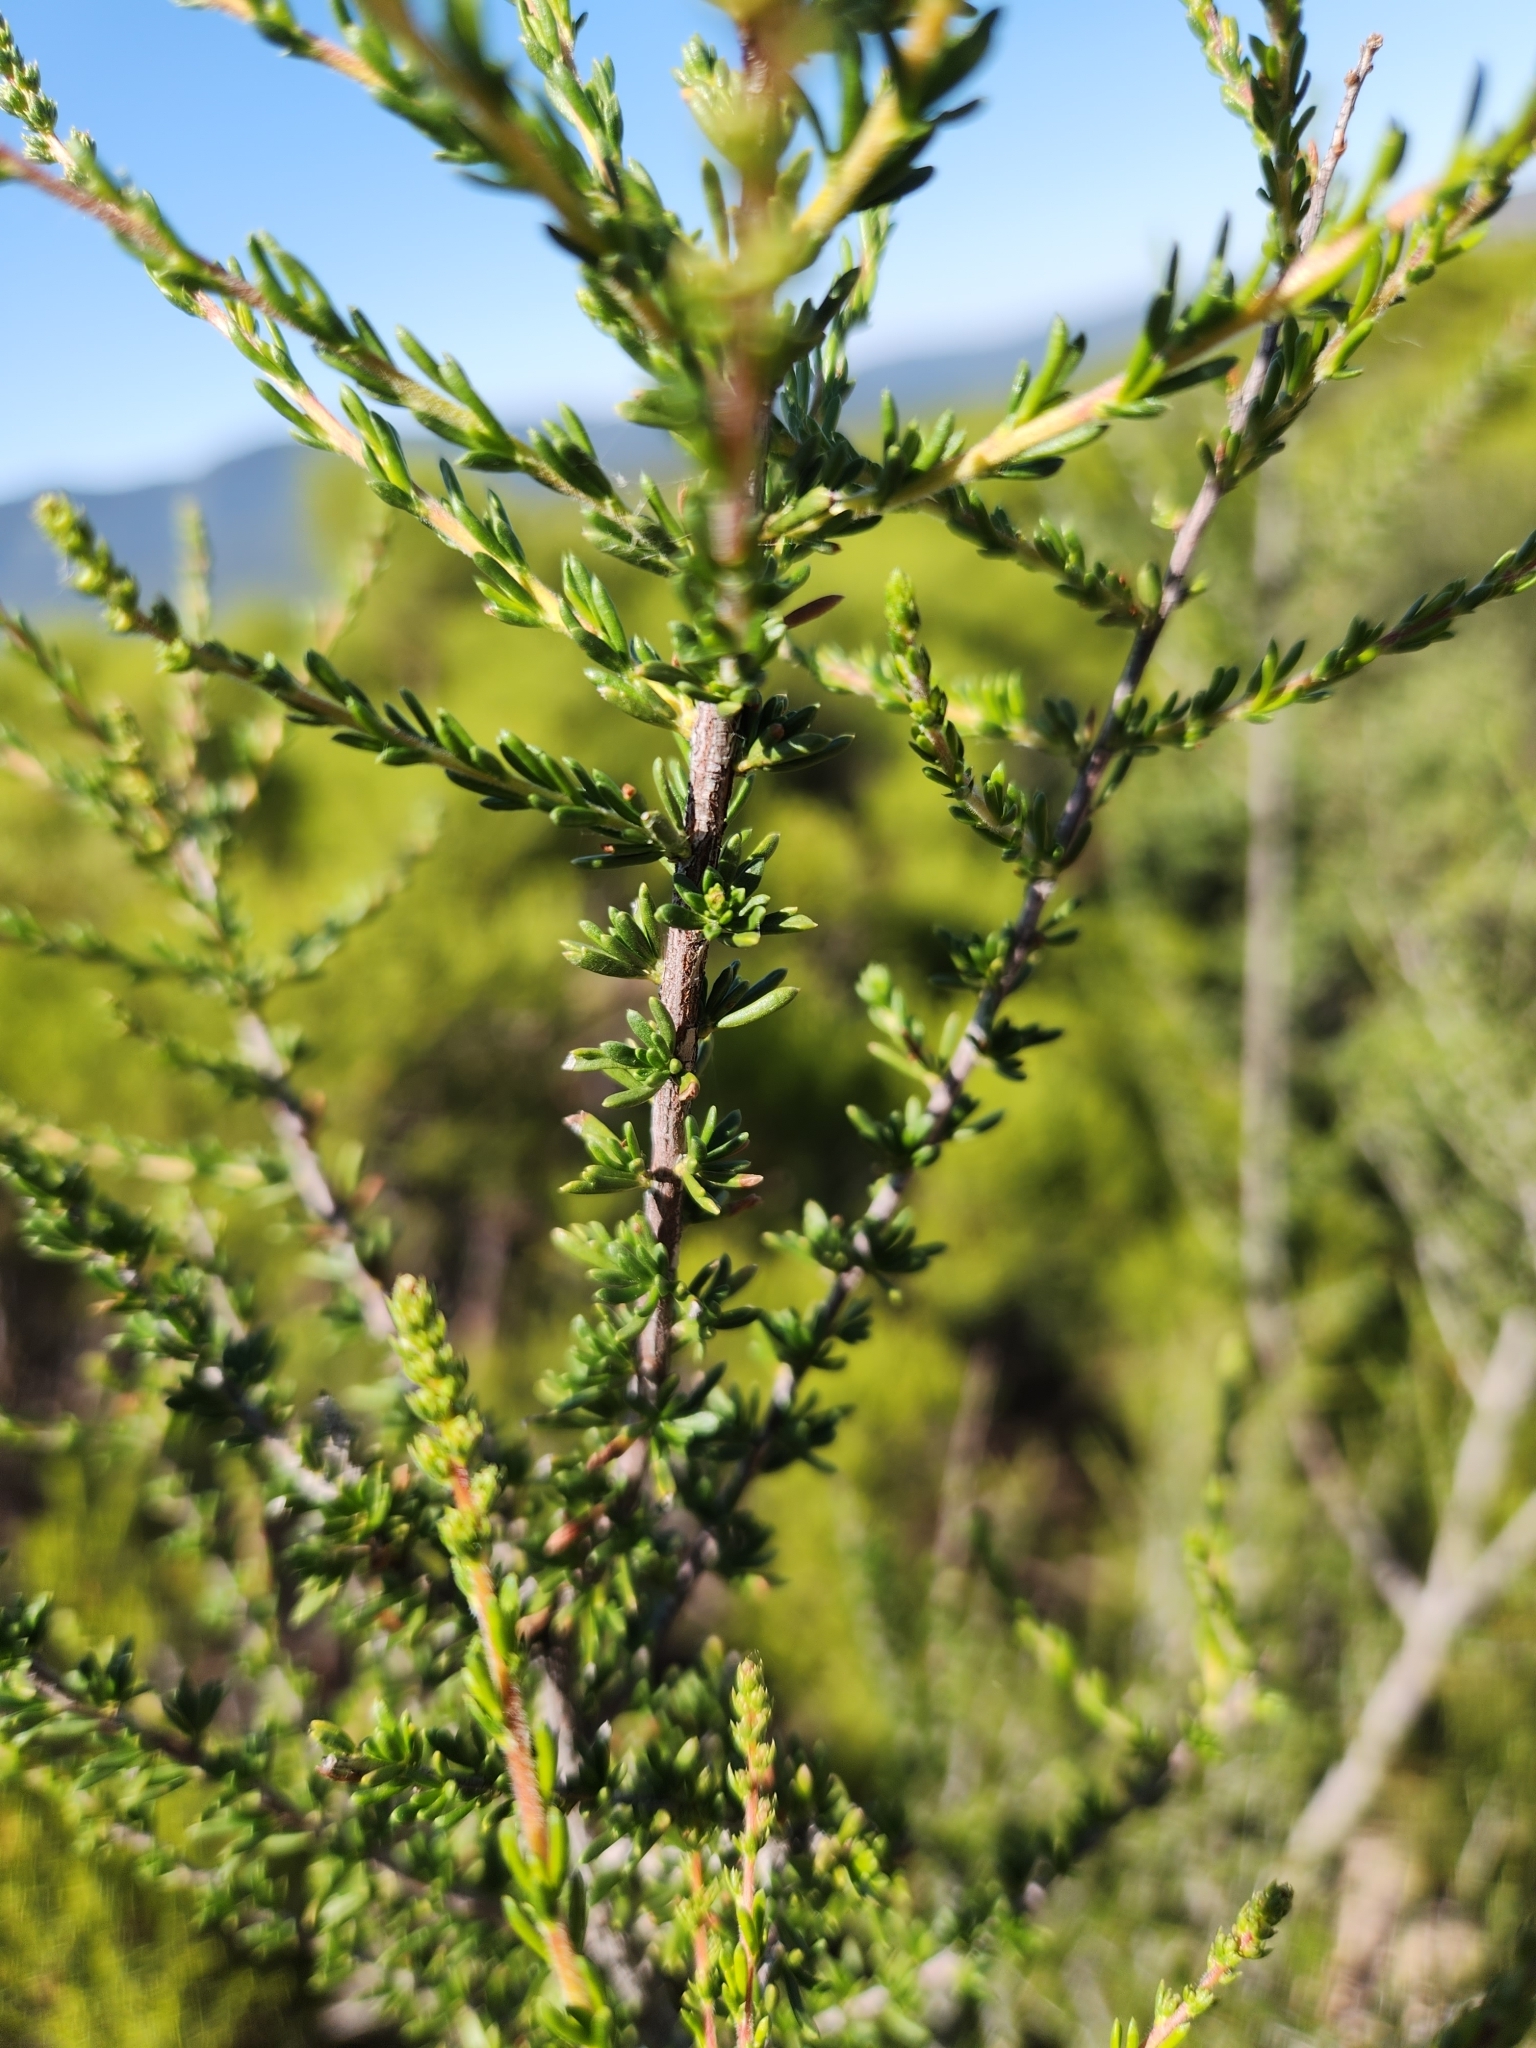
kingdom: Plantae
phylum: Tracheophyta
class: Magnoliopsida
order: Rosales
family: Rosaceae
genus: Adenostoma
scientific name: Adenostoma fasciculatum
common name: Chamise
